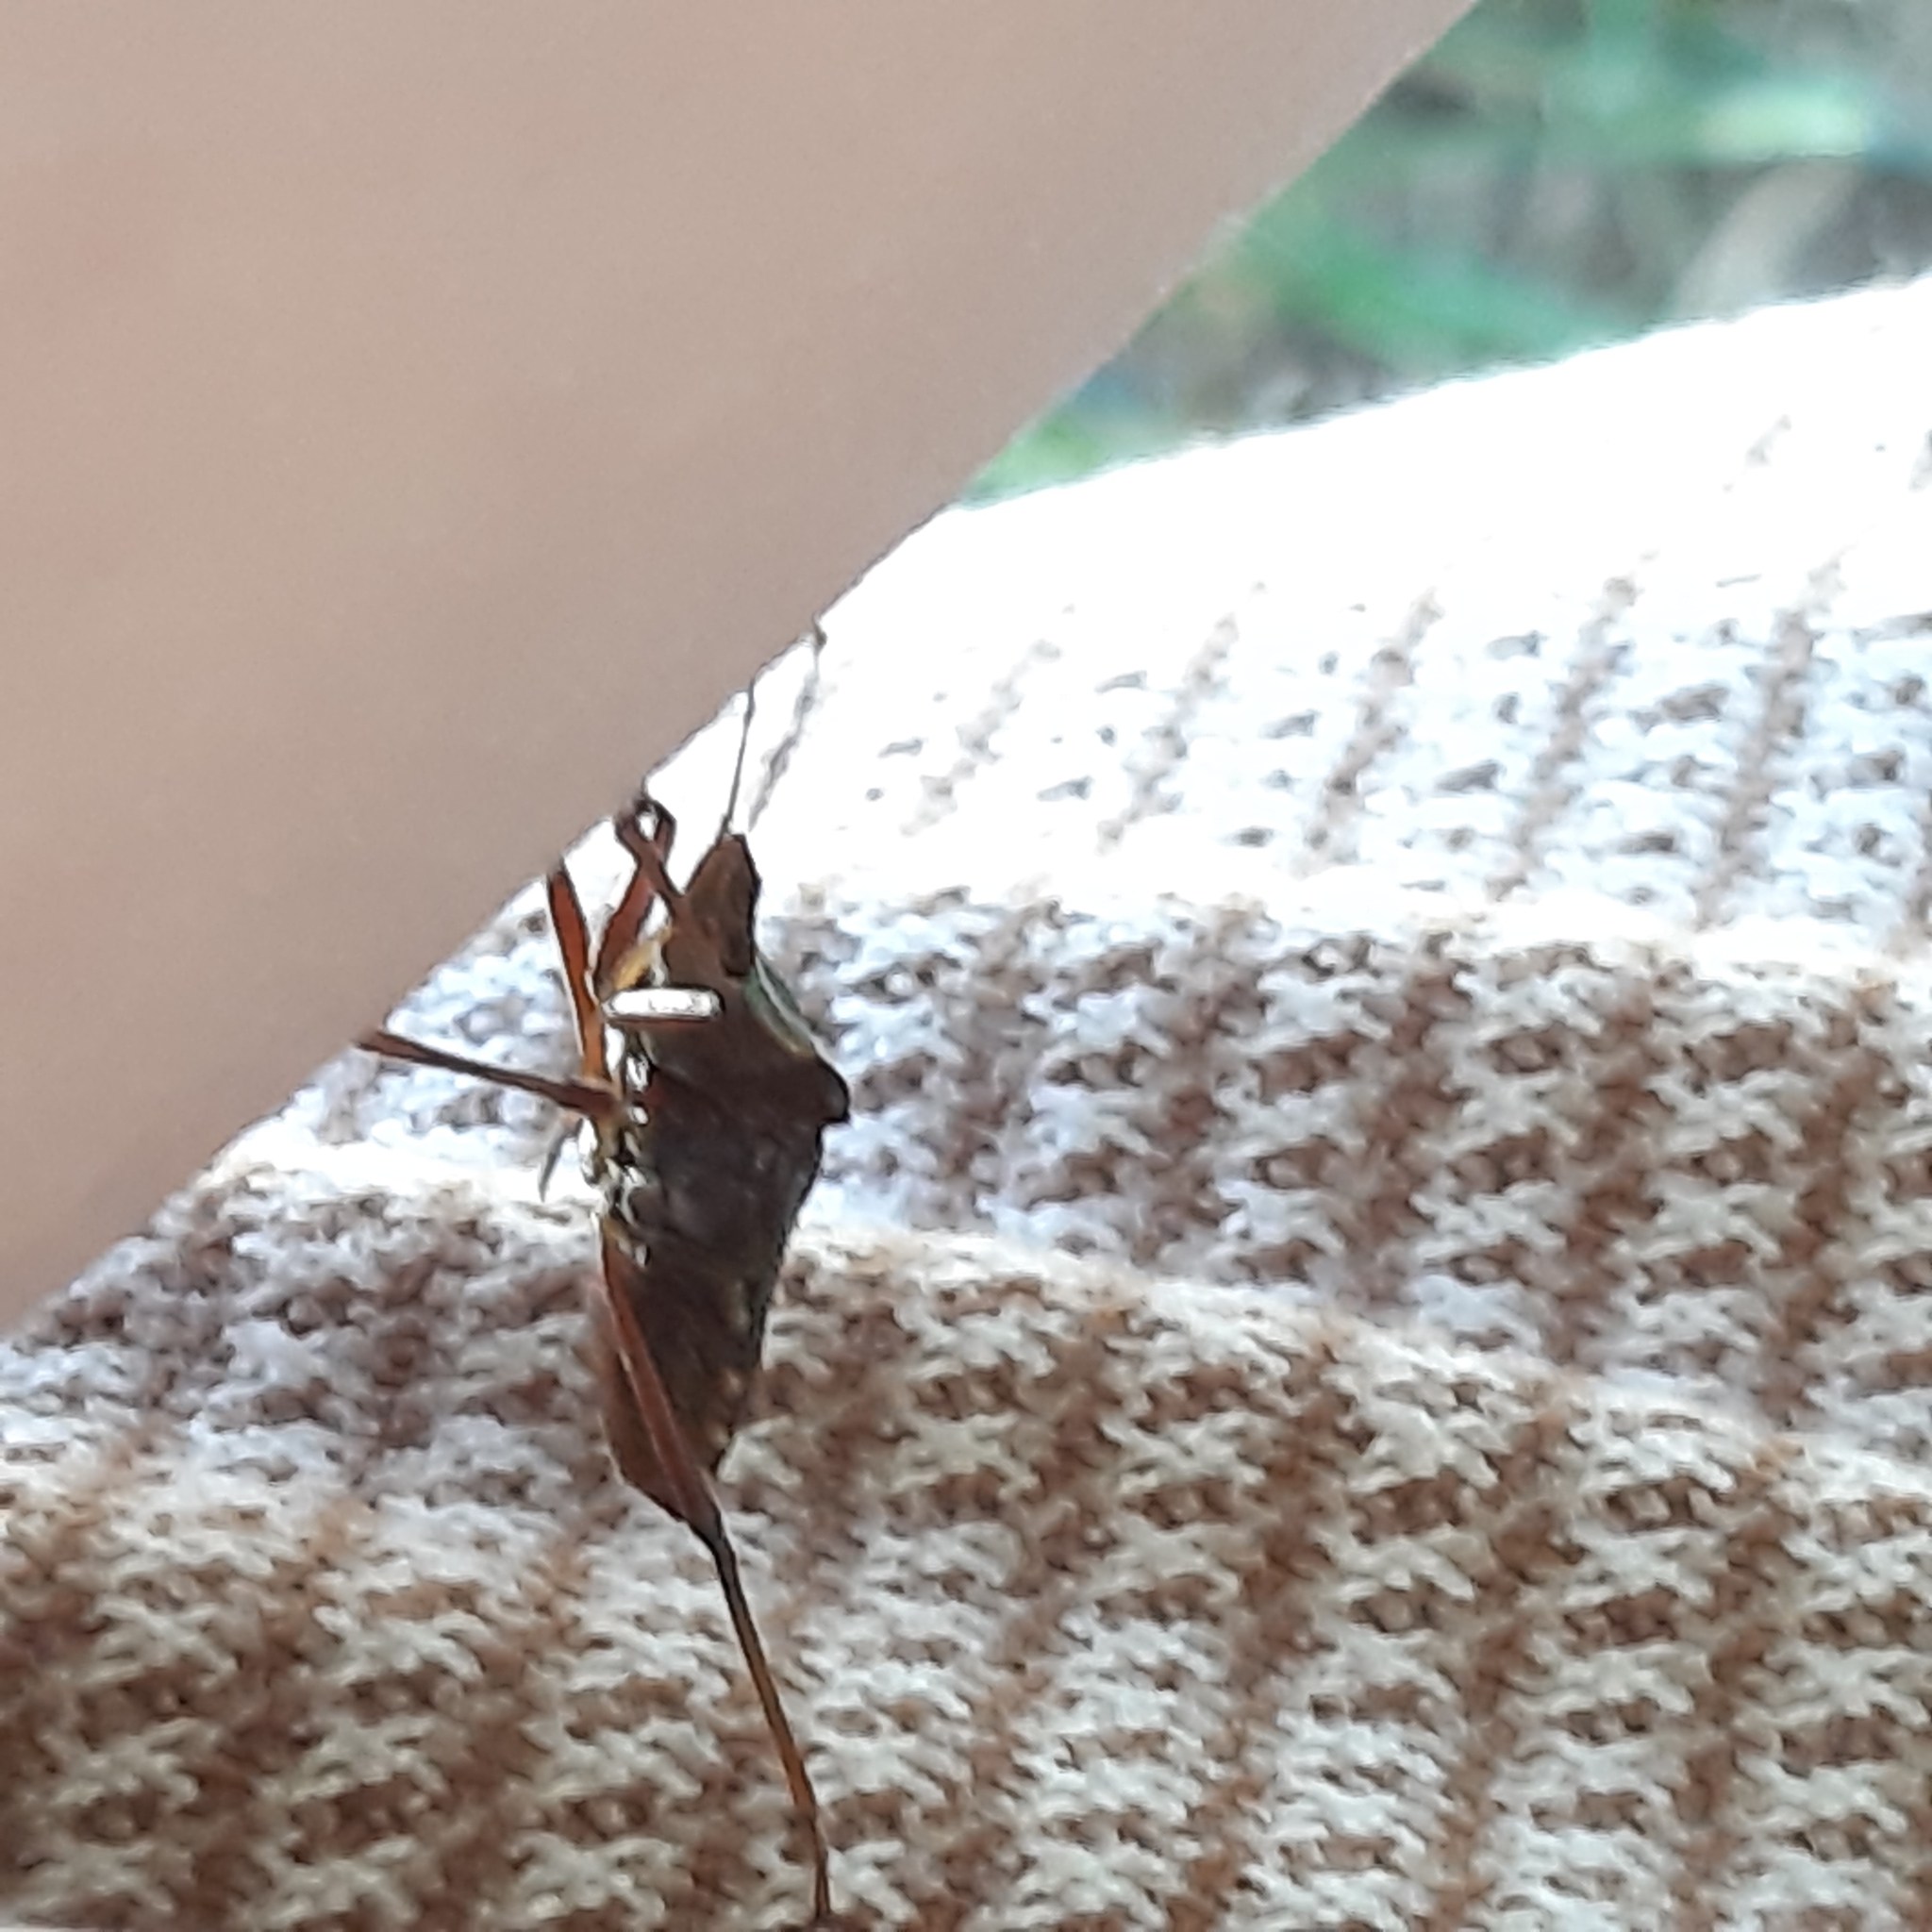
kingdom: Animalia
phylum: Arthropoda
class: Insecta
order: Hemiptera
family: Pentatomidae
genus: Pentatoma
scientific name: Pentatoma rufipes
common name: Forest bug
